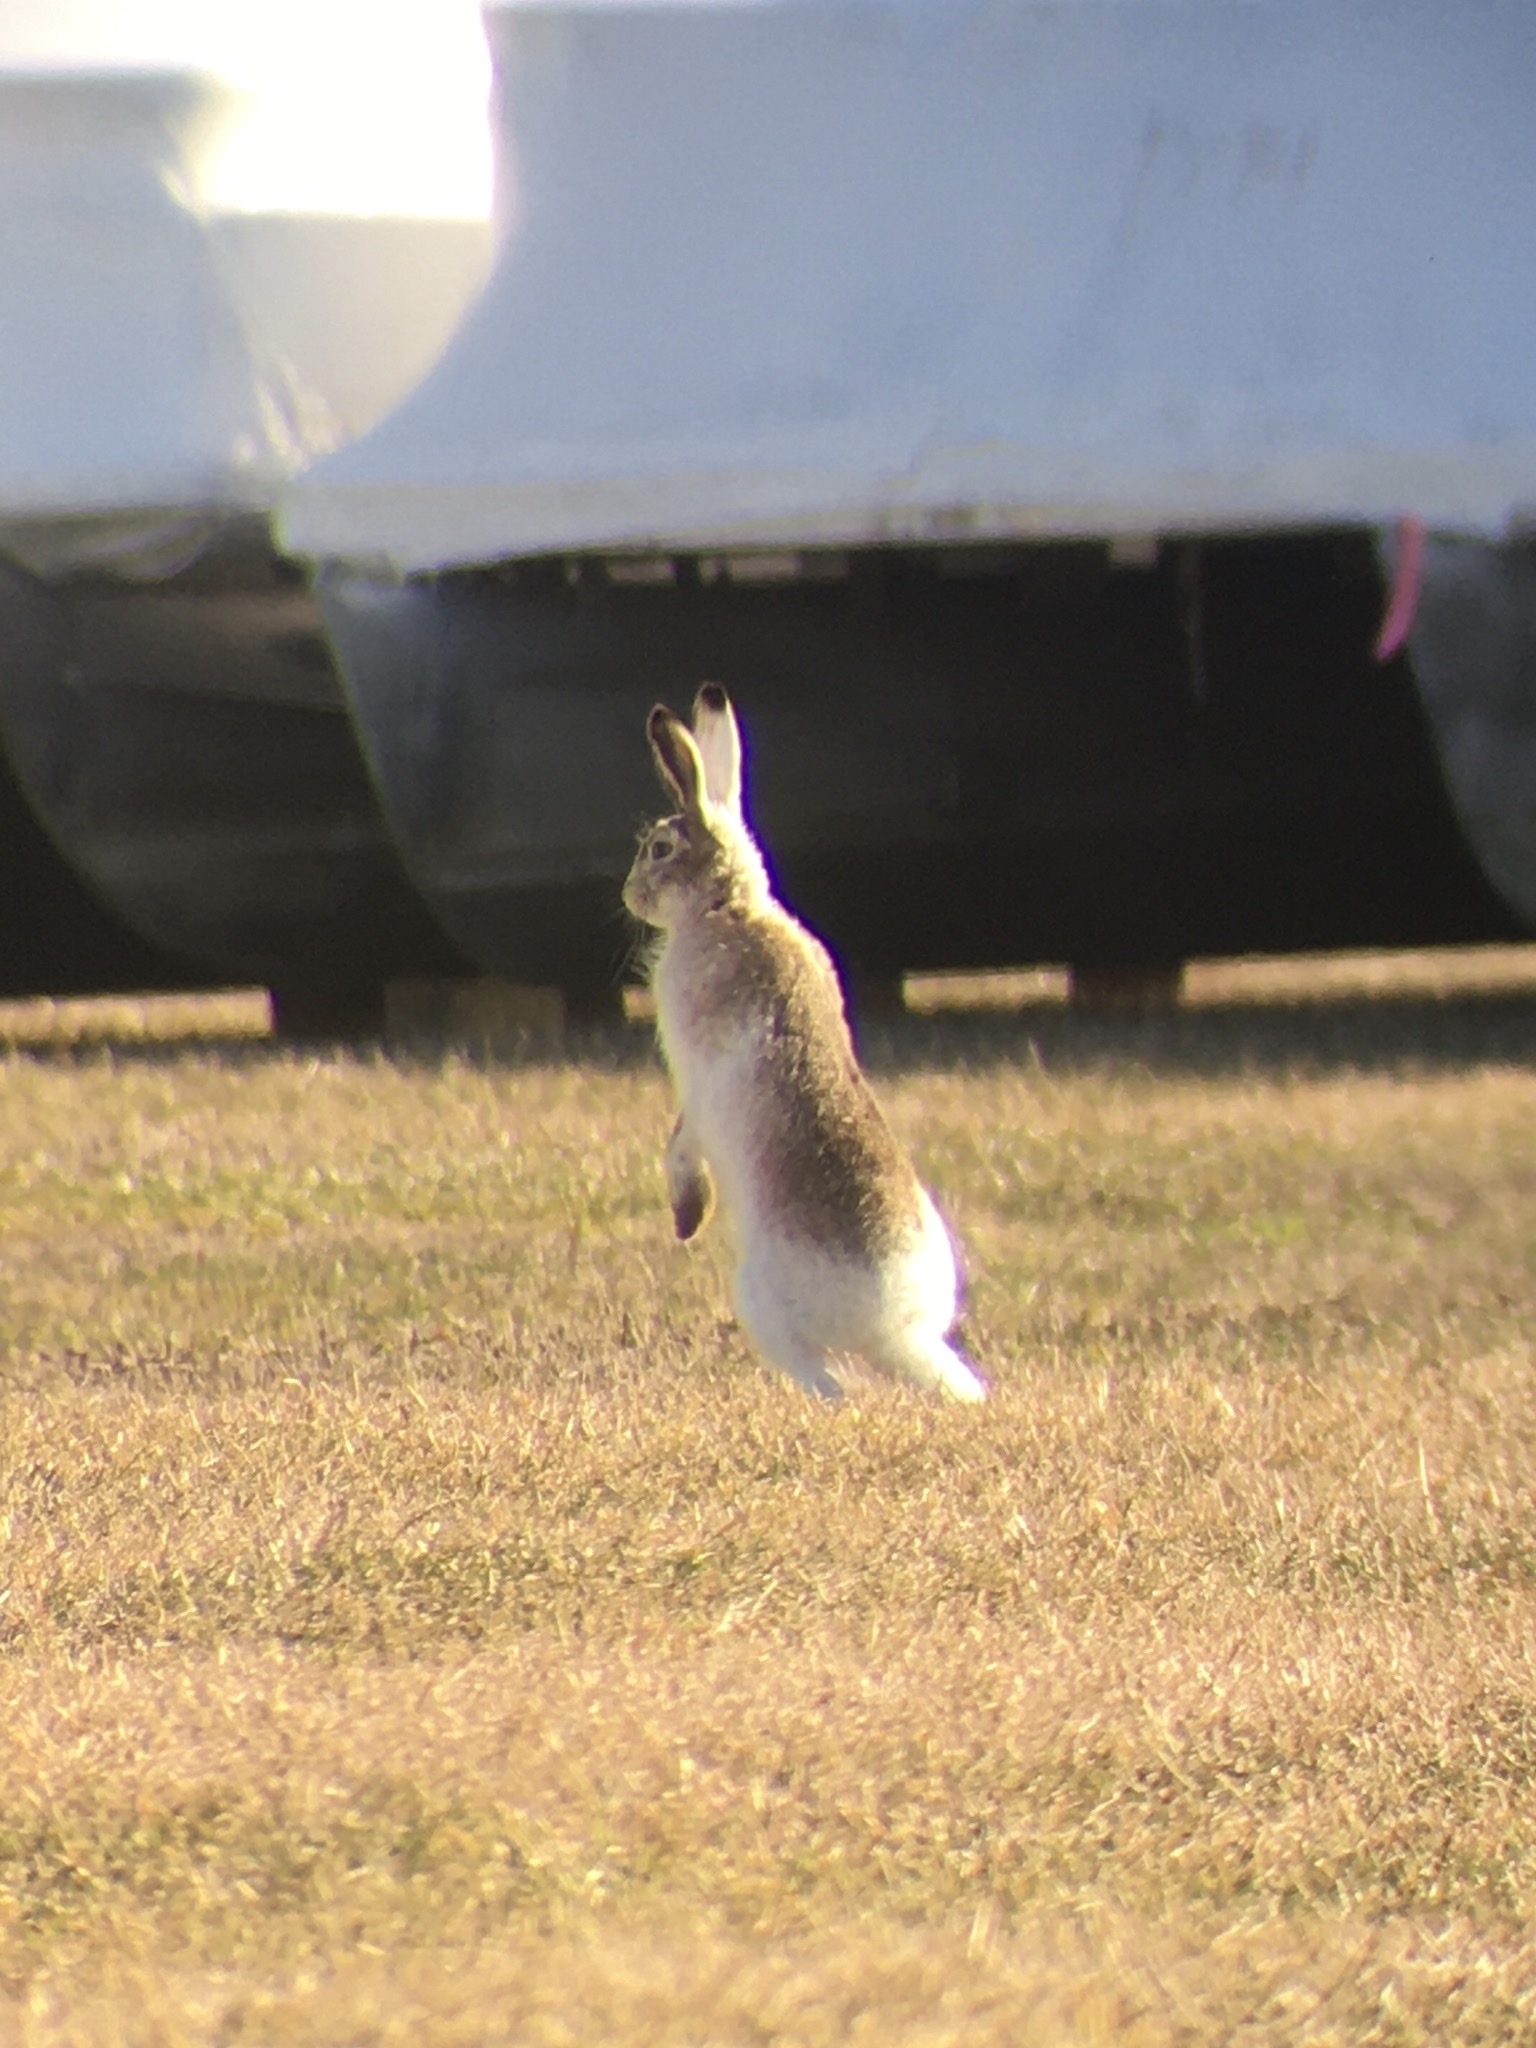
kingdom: Animalia
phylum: Chordata
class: Mammalia
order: Lagomorpha
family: Leporidae
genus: Lepus
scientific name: Lepus townsendii
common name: White-tailed jackrabbit
